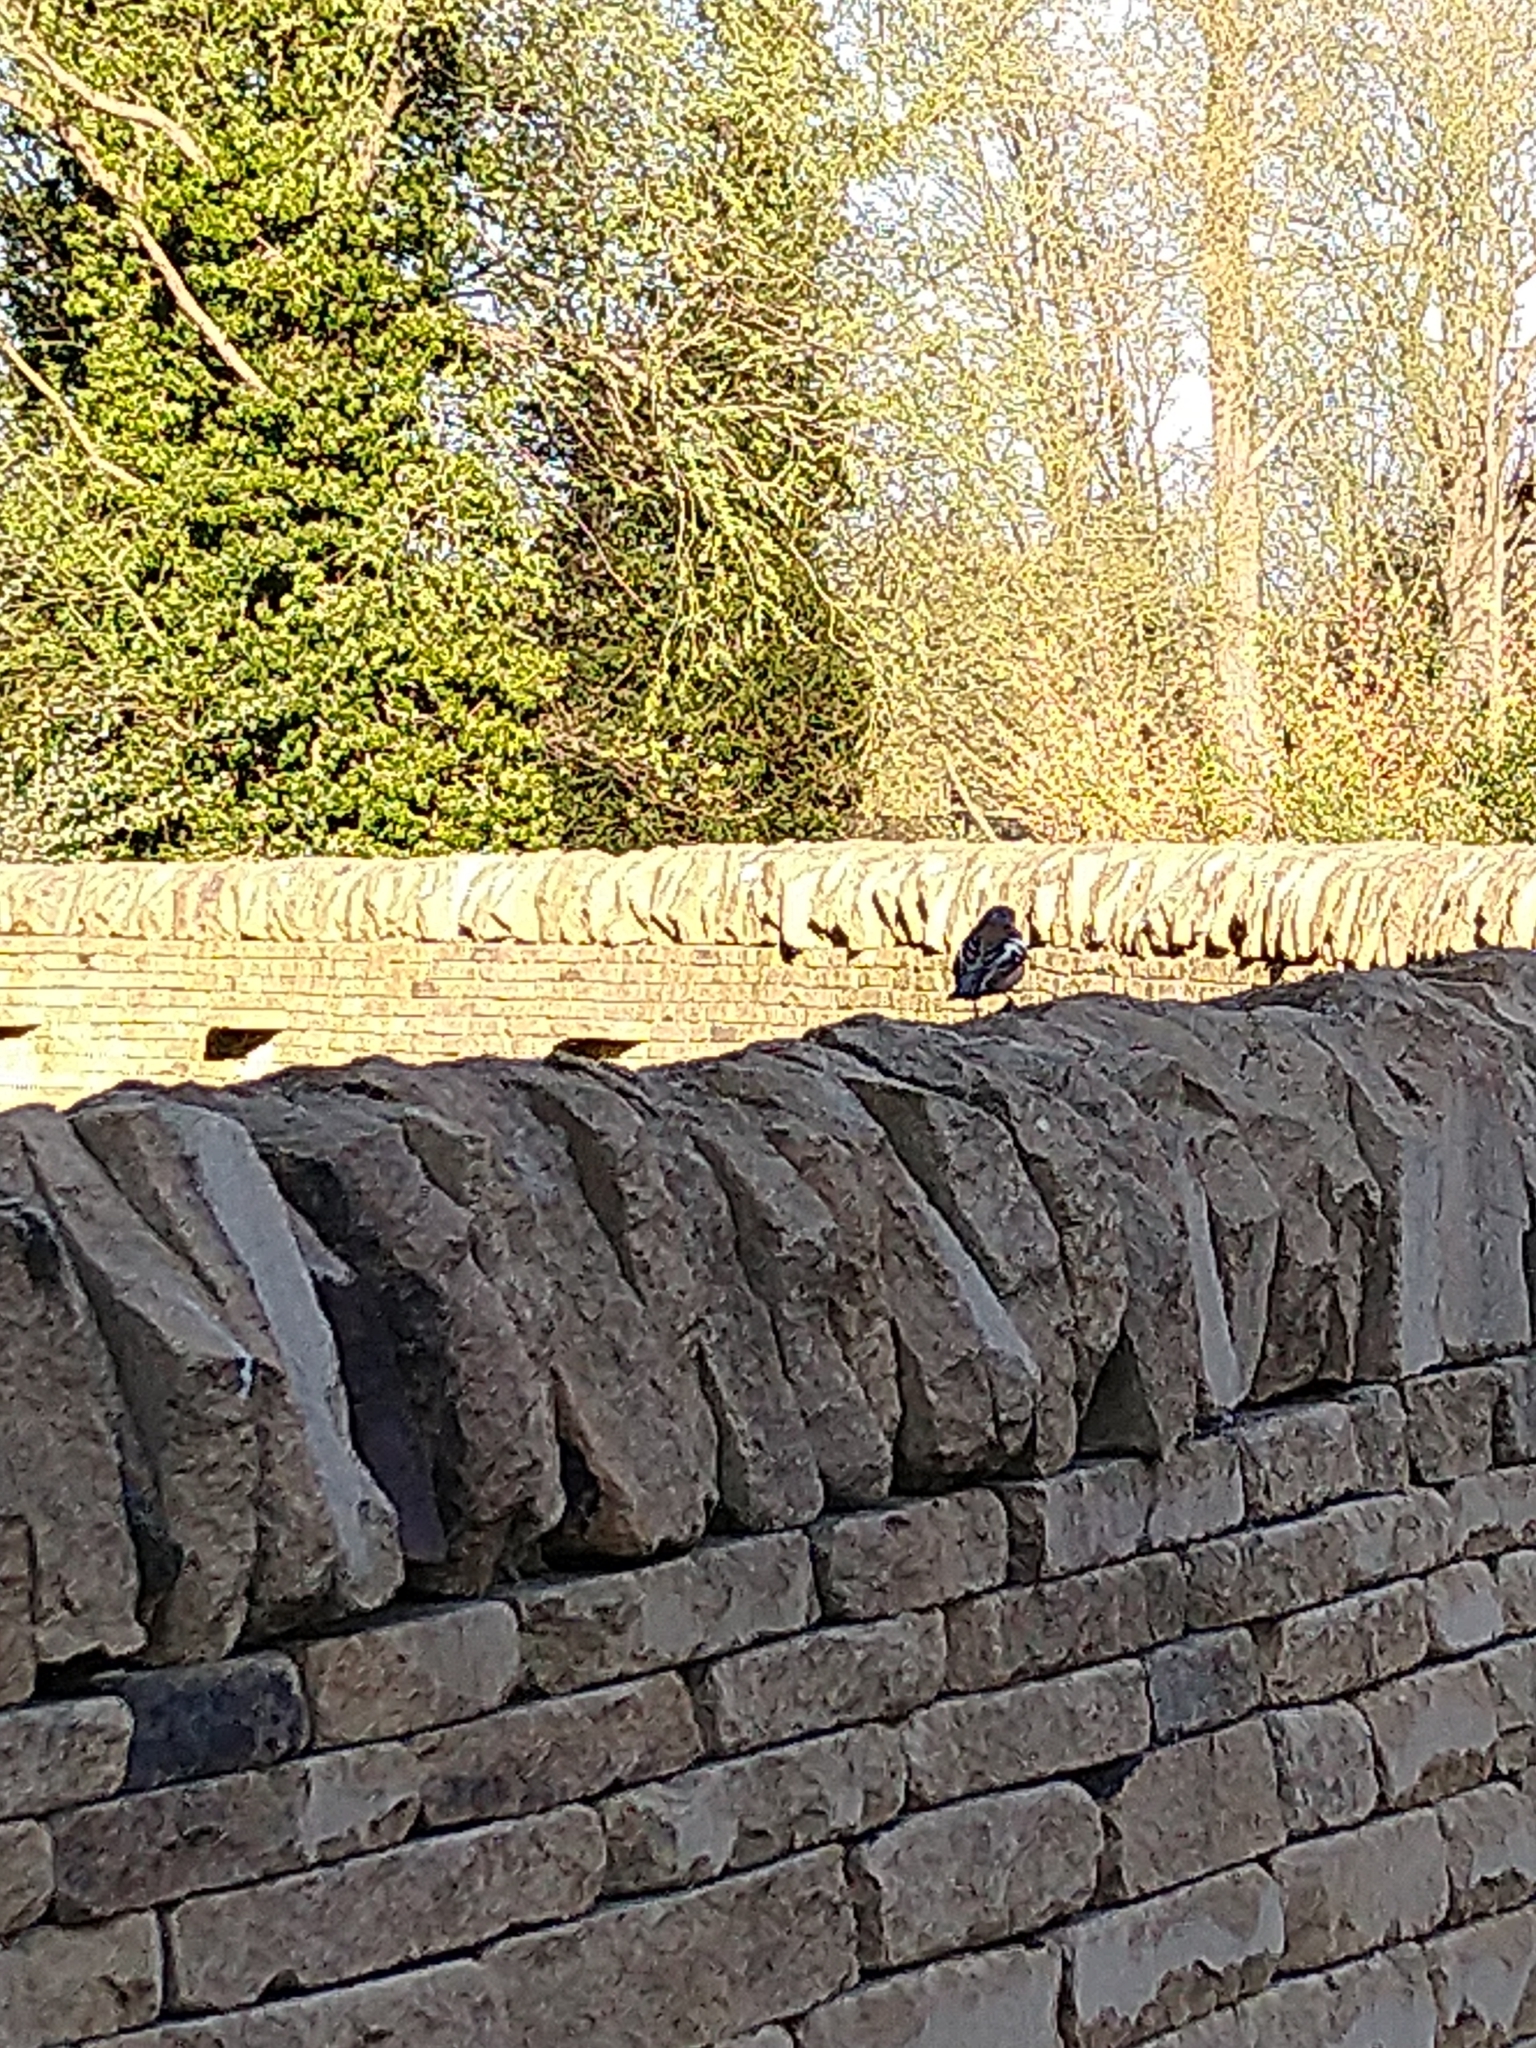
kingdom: Animalia
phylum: Chordata
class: Aves
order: Passeriformes
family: Fringillidae
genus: Fringilla
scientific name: Fringilla coelebs
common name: Common chaffinch
